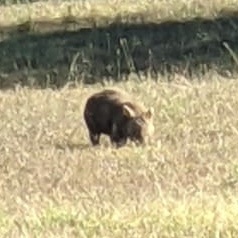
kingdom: Animalia
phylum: Chordata
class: Mammalia
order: Diprotodontia
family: Vombatidae
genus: Vombatus
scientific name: Vombatus ursinus
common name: Common wombat
